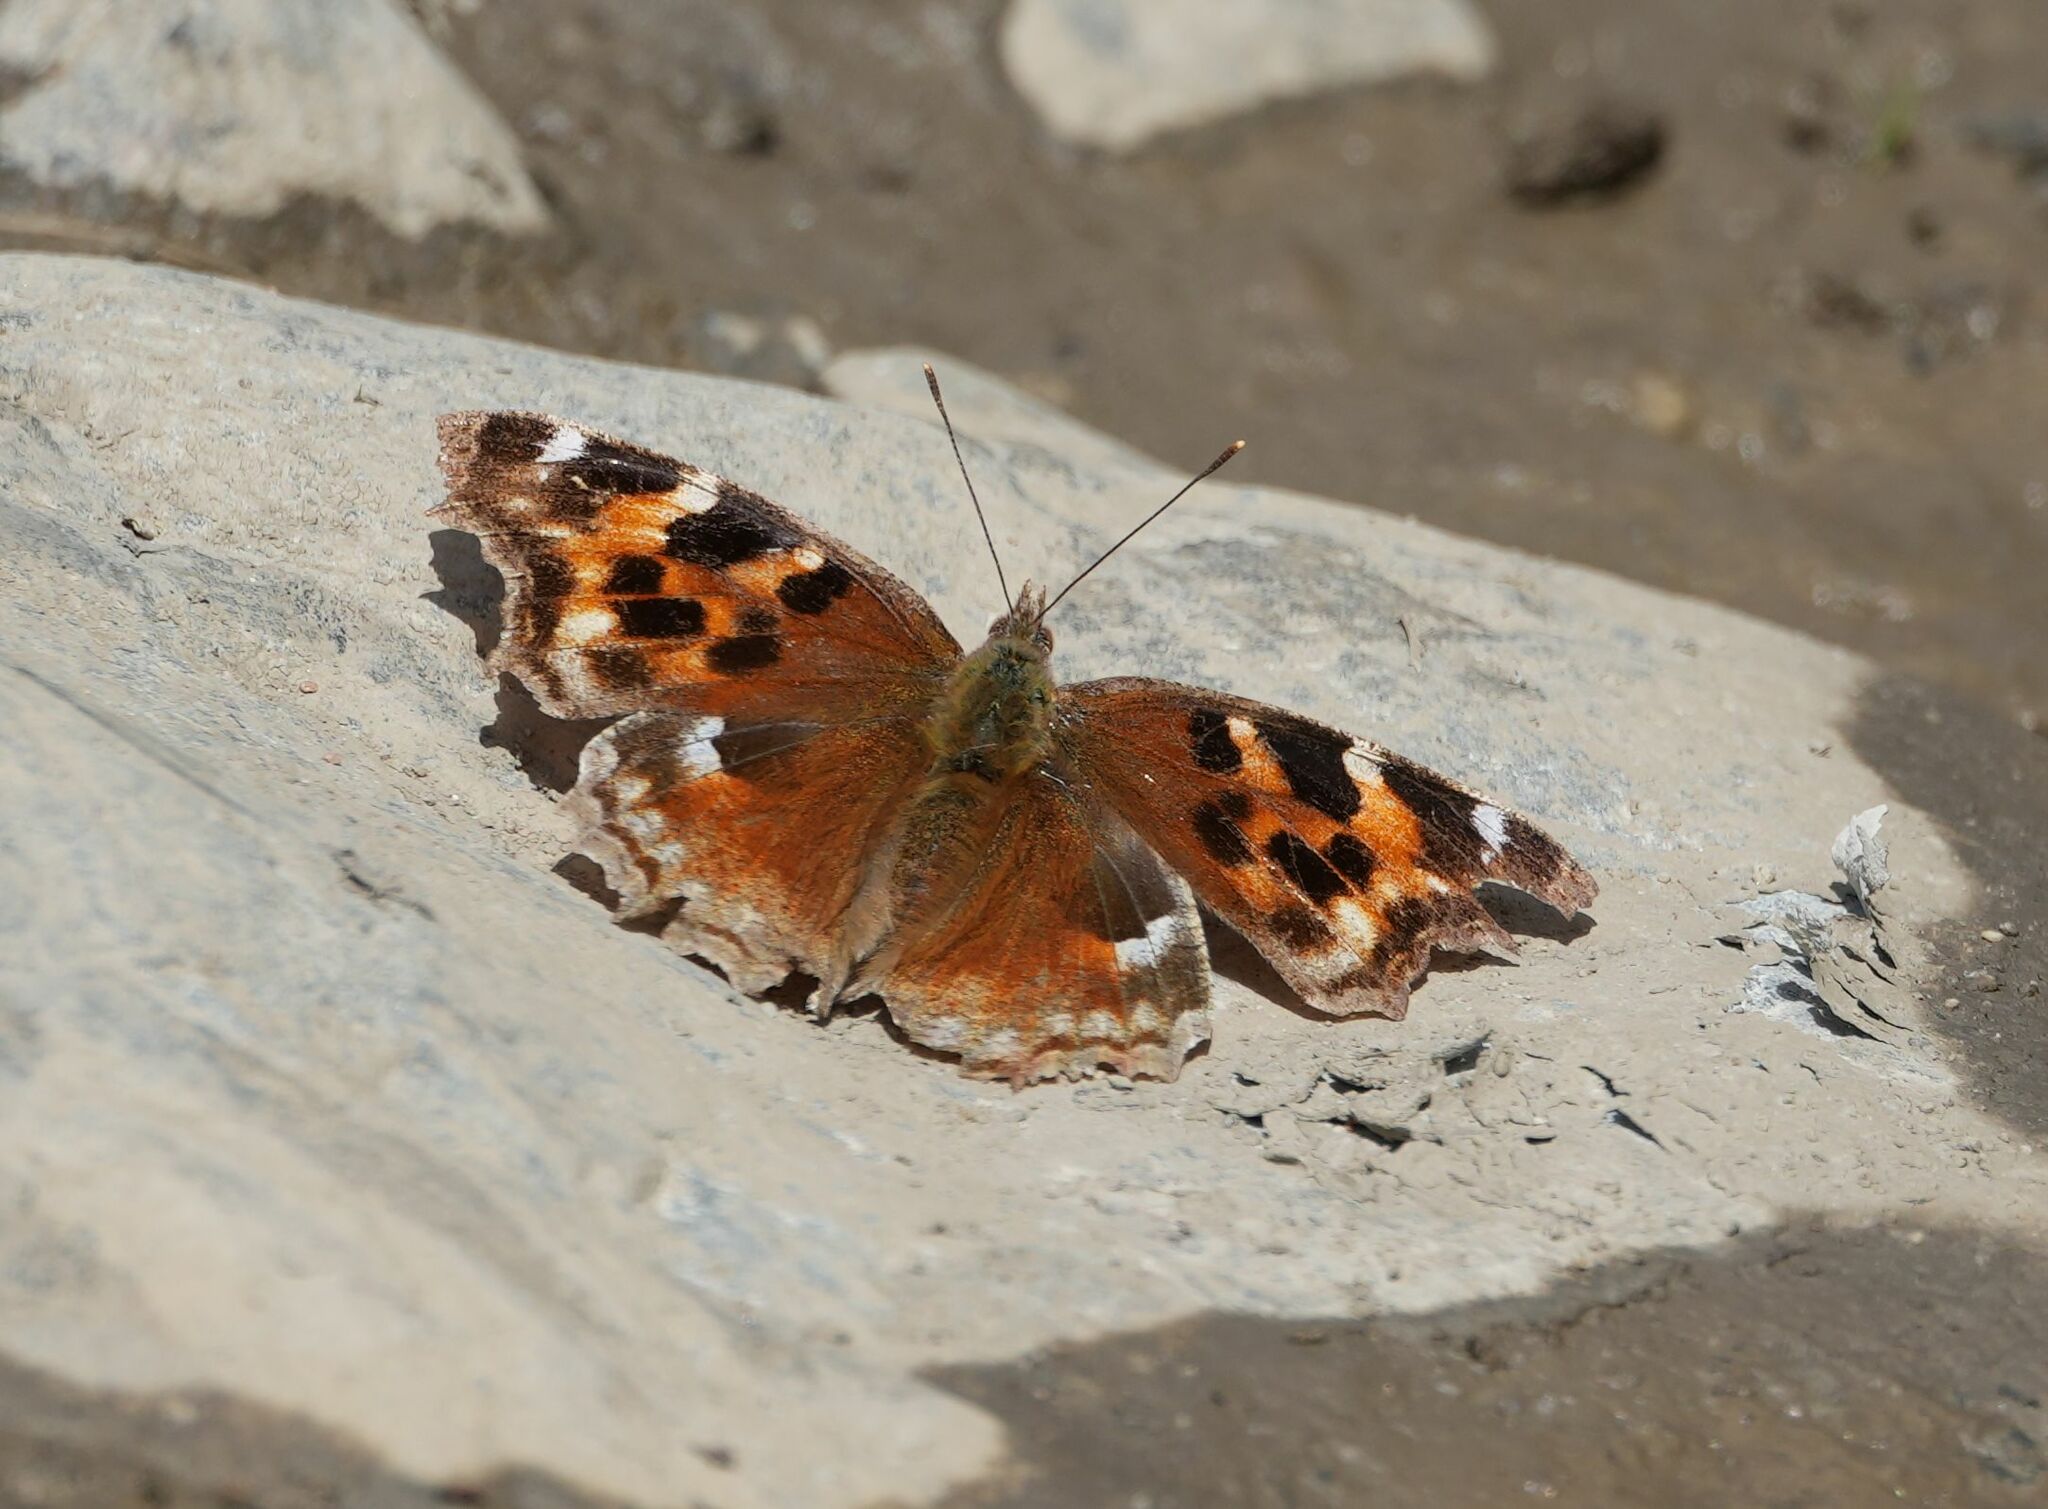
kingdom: Animalia
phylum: Arthropoda
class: Insecta
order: Lepidoptera
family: Nymphalidae
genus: Polygonia
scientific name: Polygonia vaualbum
